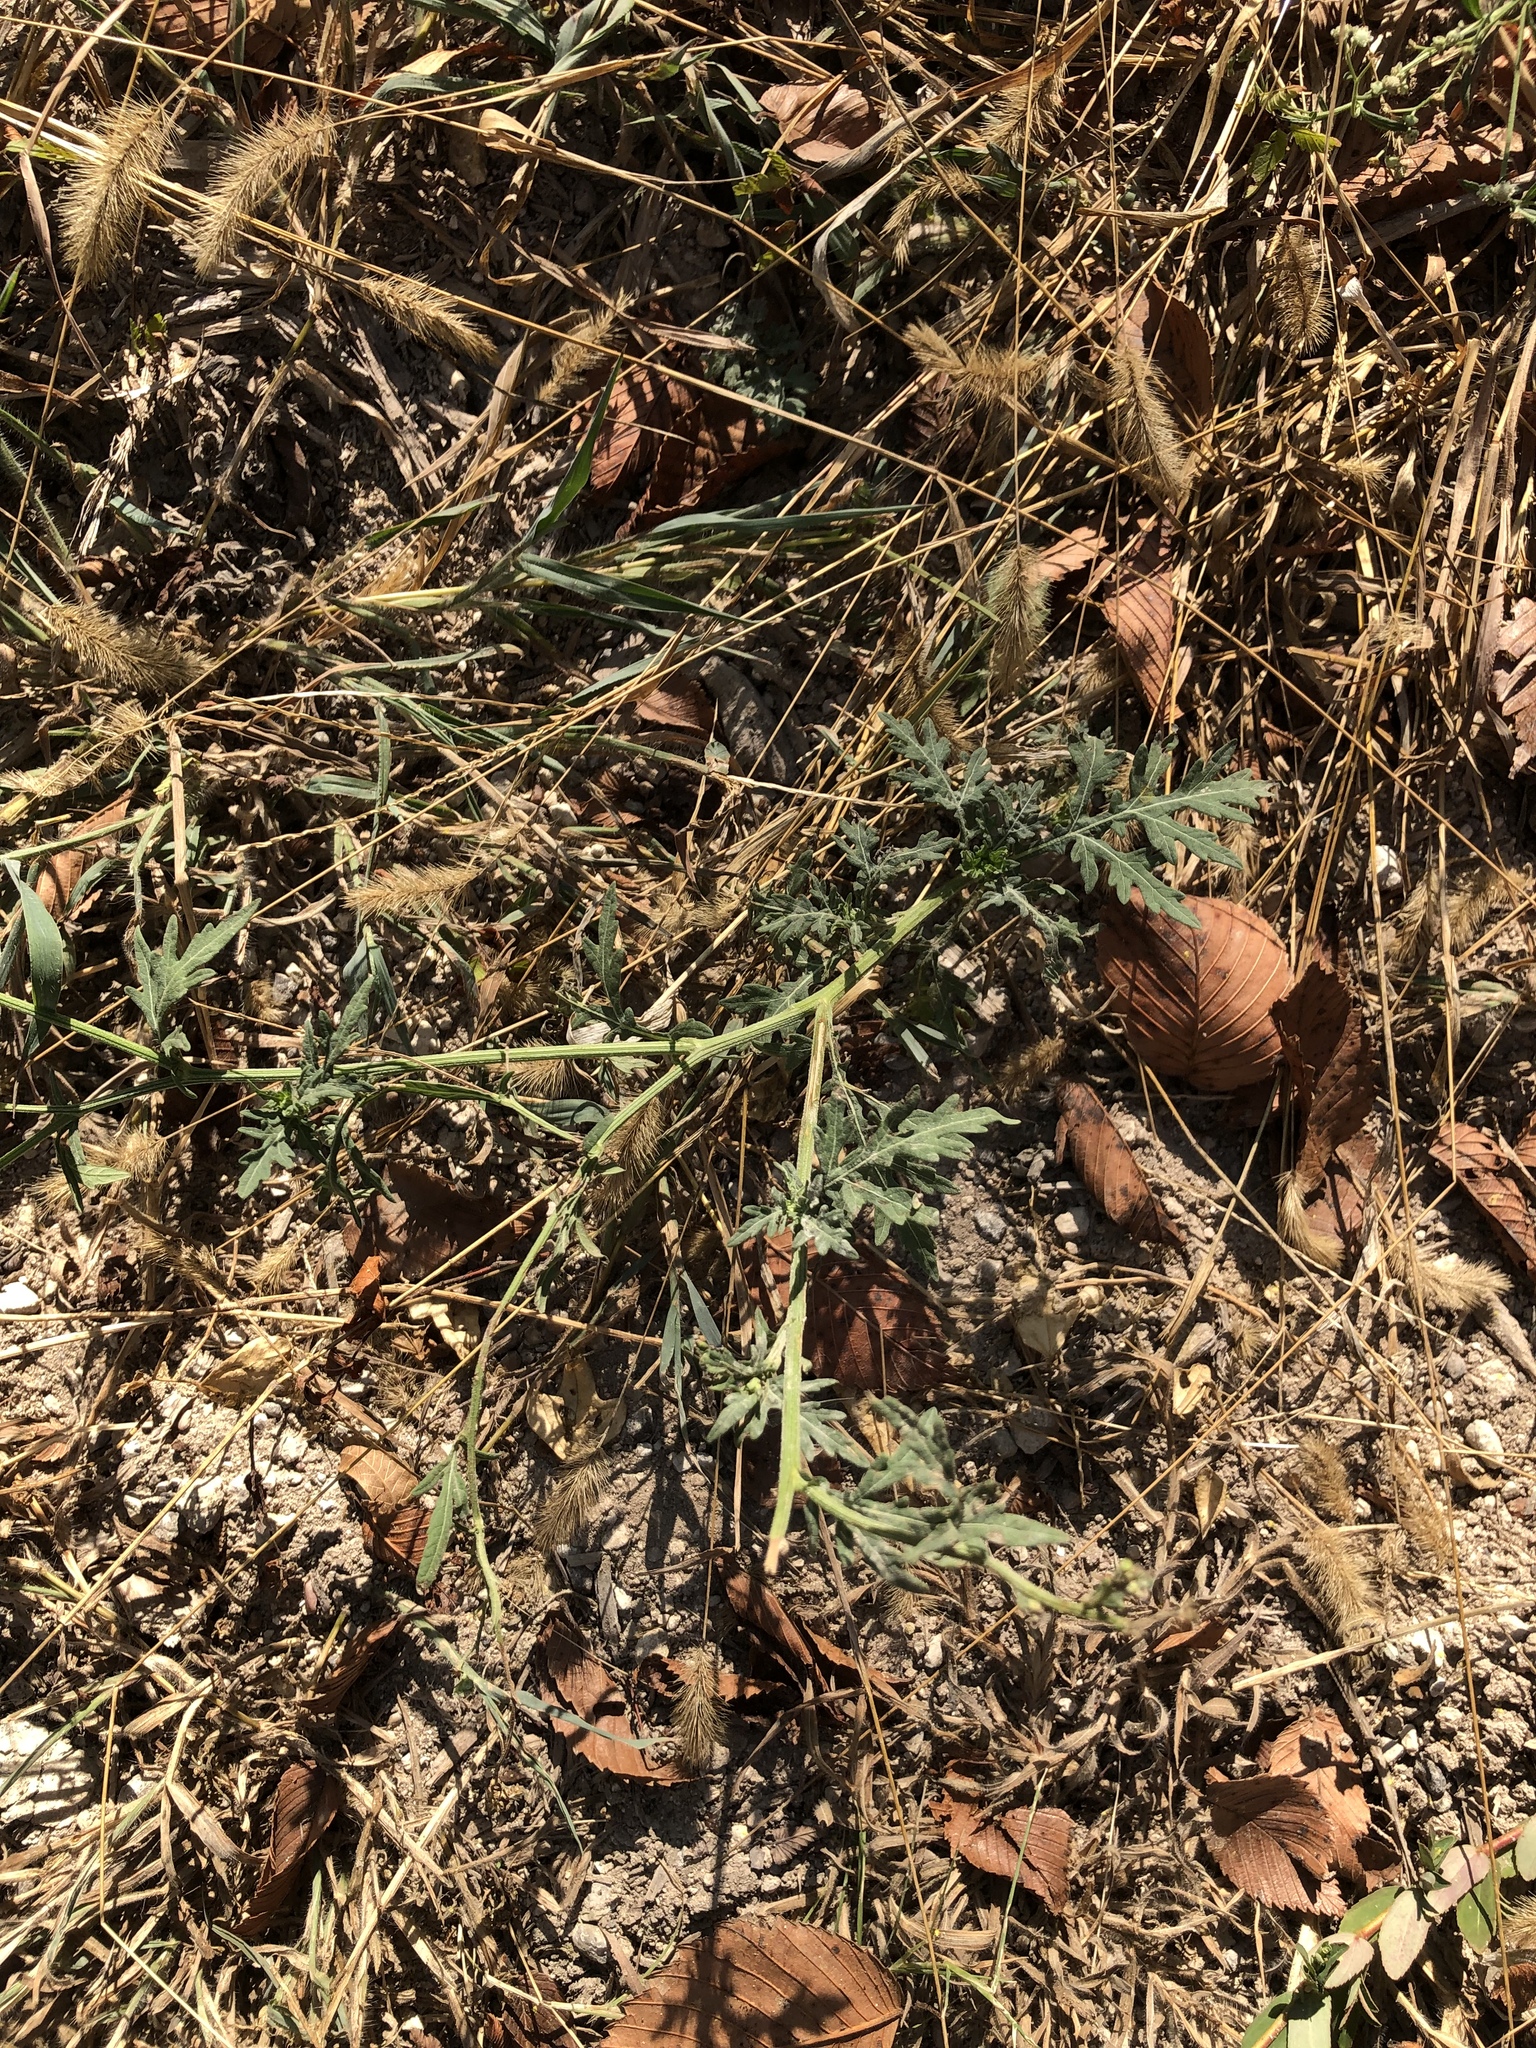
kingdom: Plantae
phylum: Tracheophyta
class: Magnoliopsida
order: Asterales
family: Asteraceae
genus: Parthenium
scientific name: Parthenium hysterophorus
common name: Santa maria feverfew
